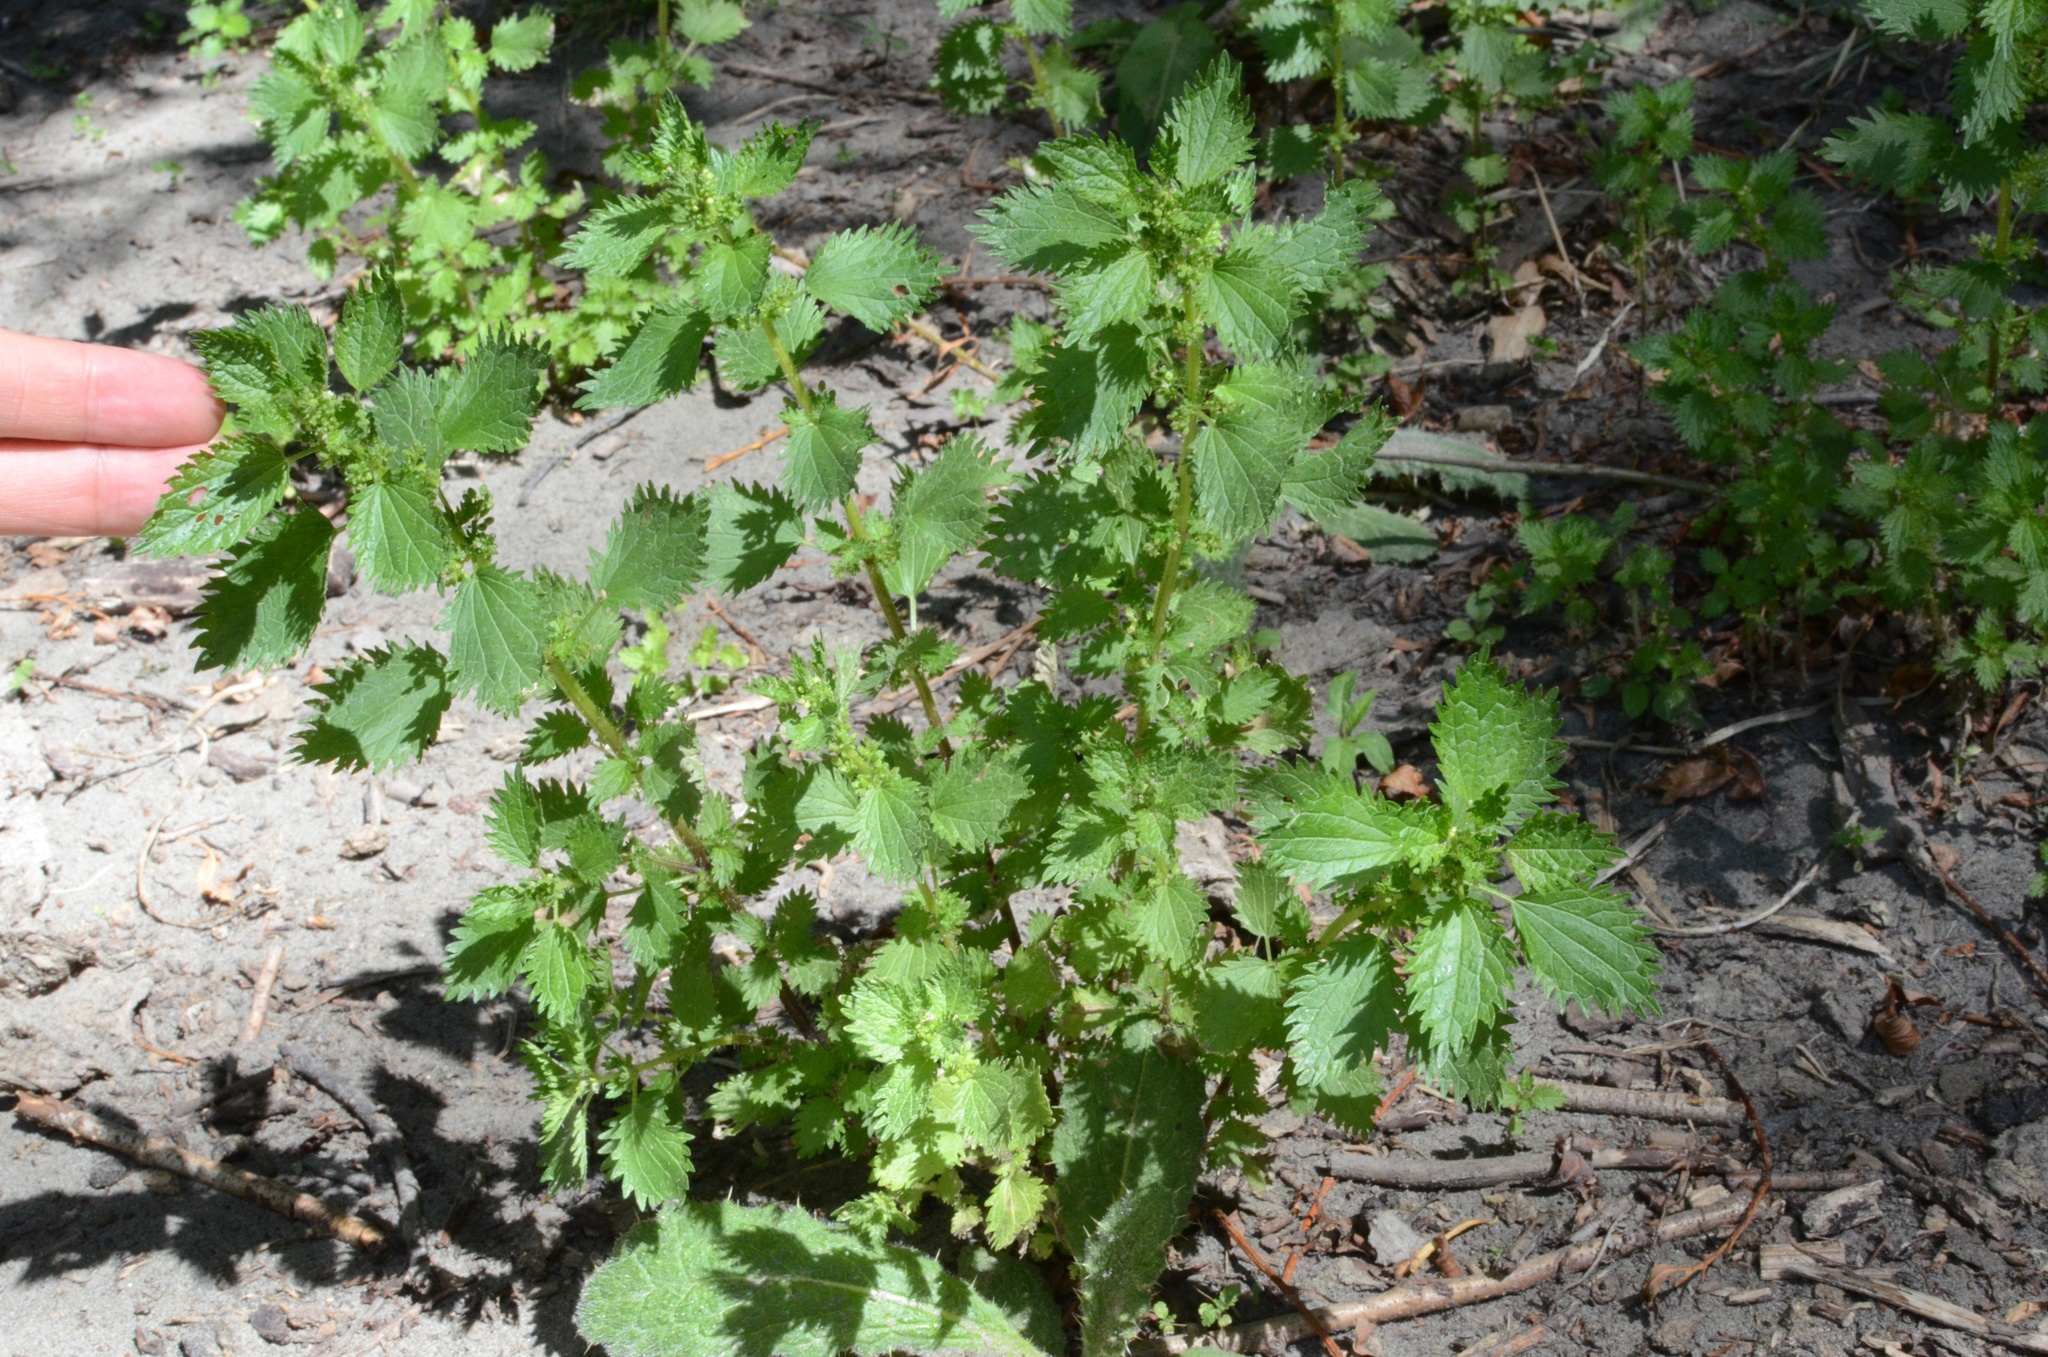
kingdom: Plantae
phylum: Tracheophyta
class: Magnoliopsida
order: Rosales
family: Urticaceae
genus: Urtica
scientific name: Urtica urens
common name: Dwarf nettle
